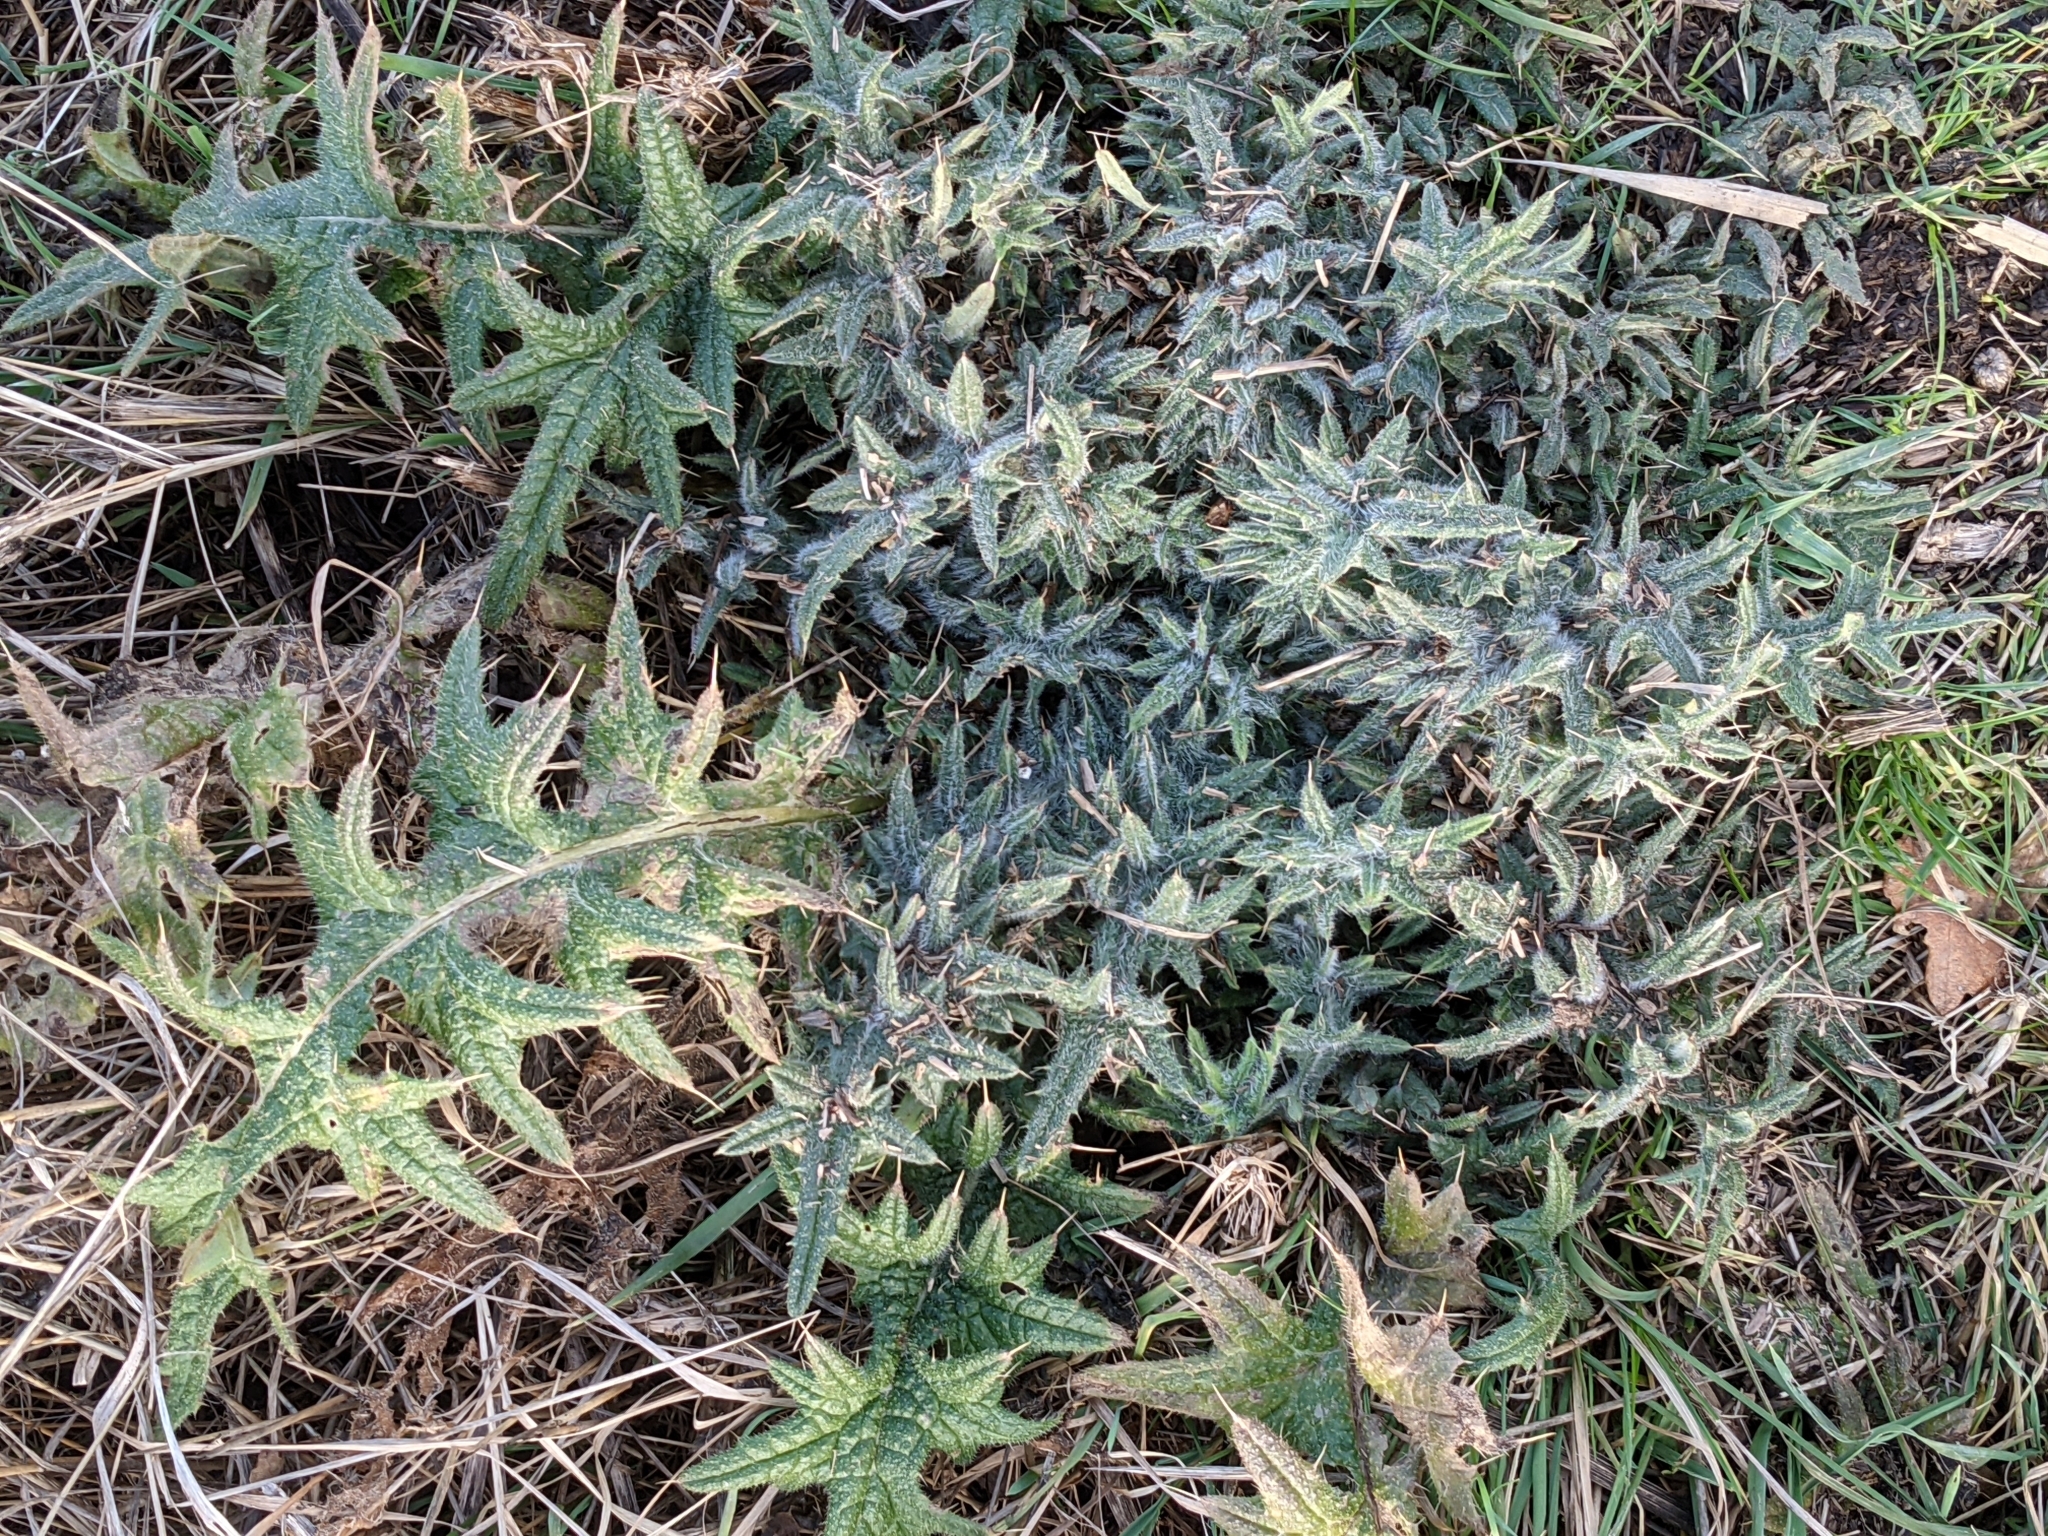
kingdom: Plantae
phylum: Tracheophyta
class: Magnoliopsida
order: Asterales
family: Asteraceae
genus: Cirsium
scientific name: Cirsium vulgare
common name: Bull thistle
